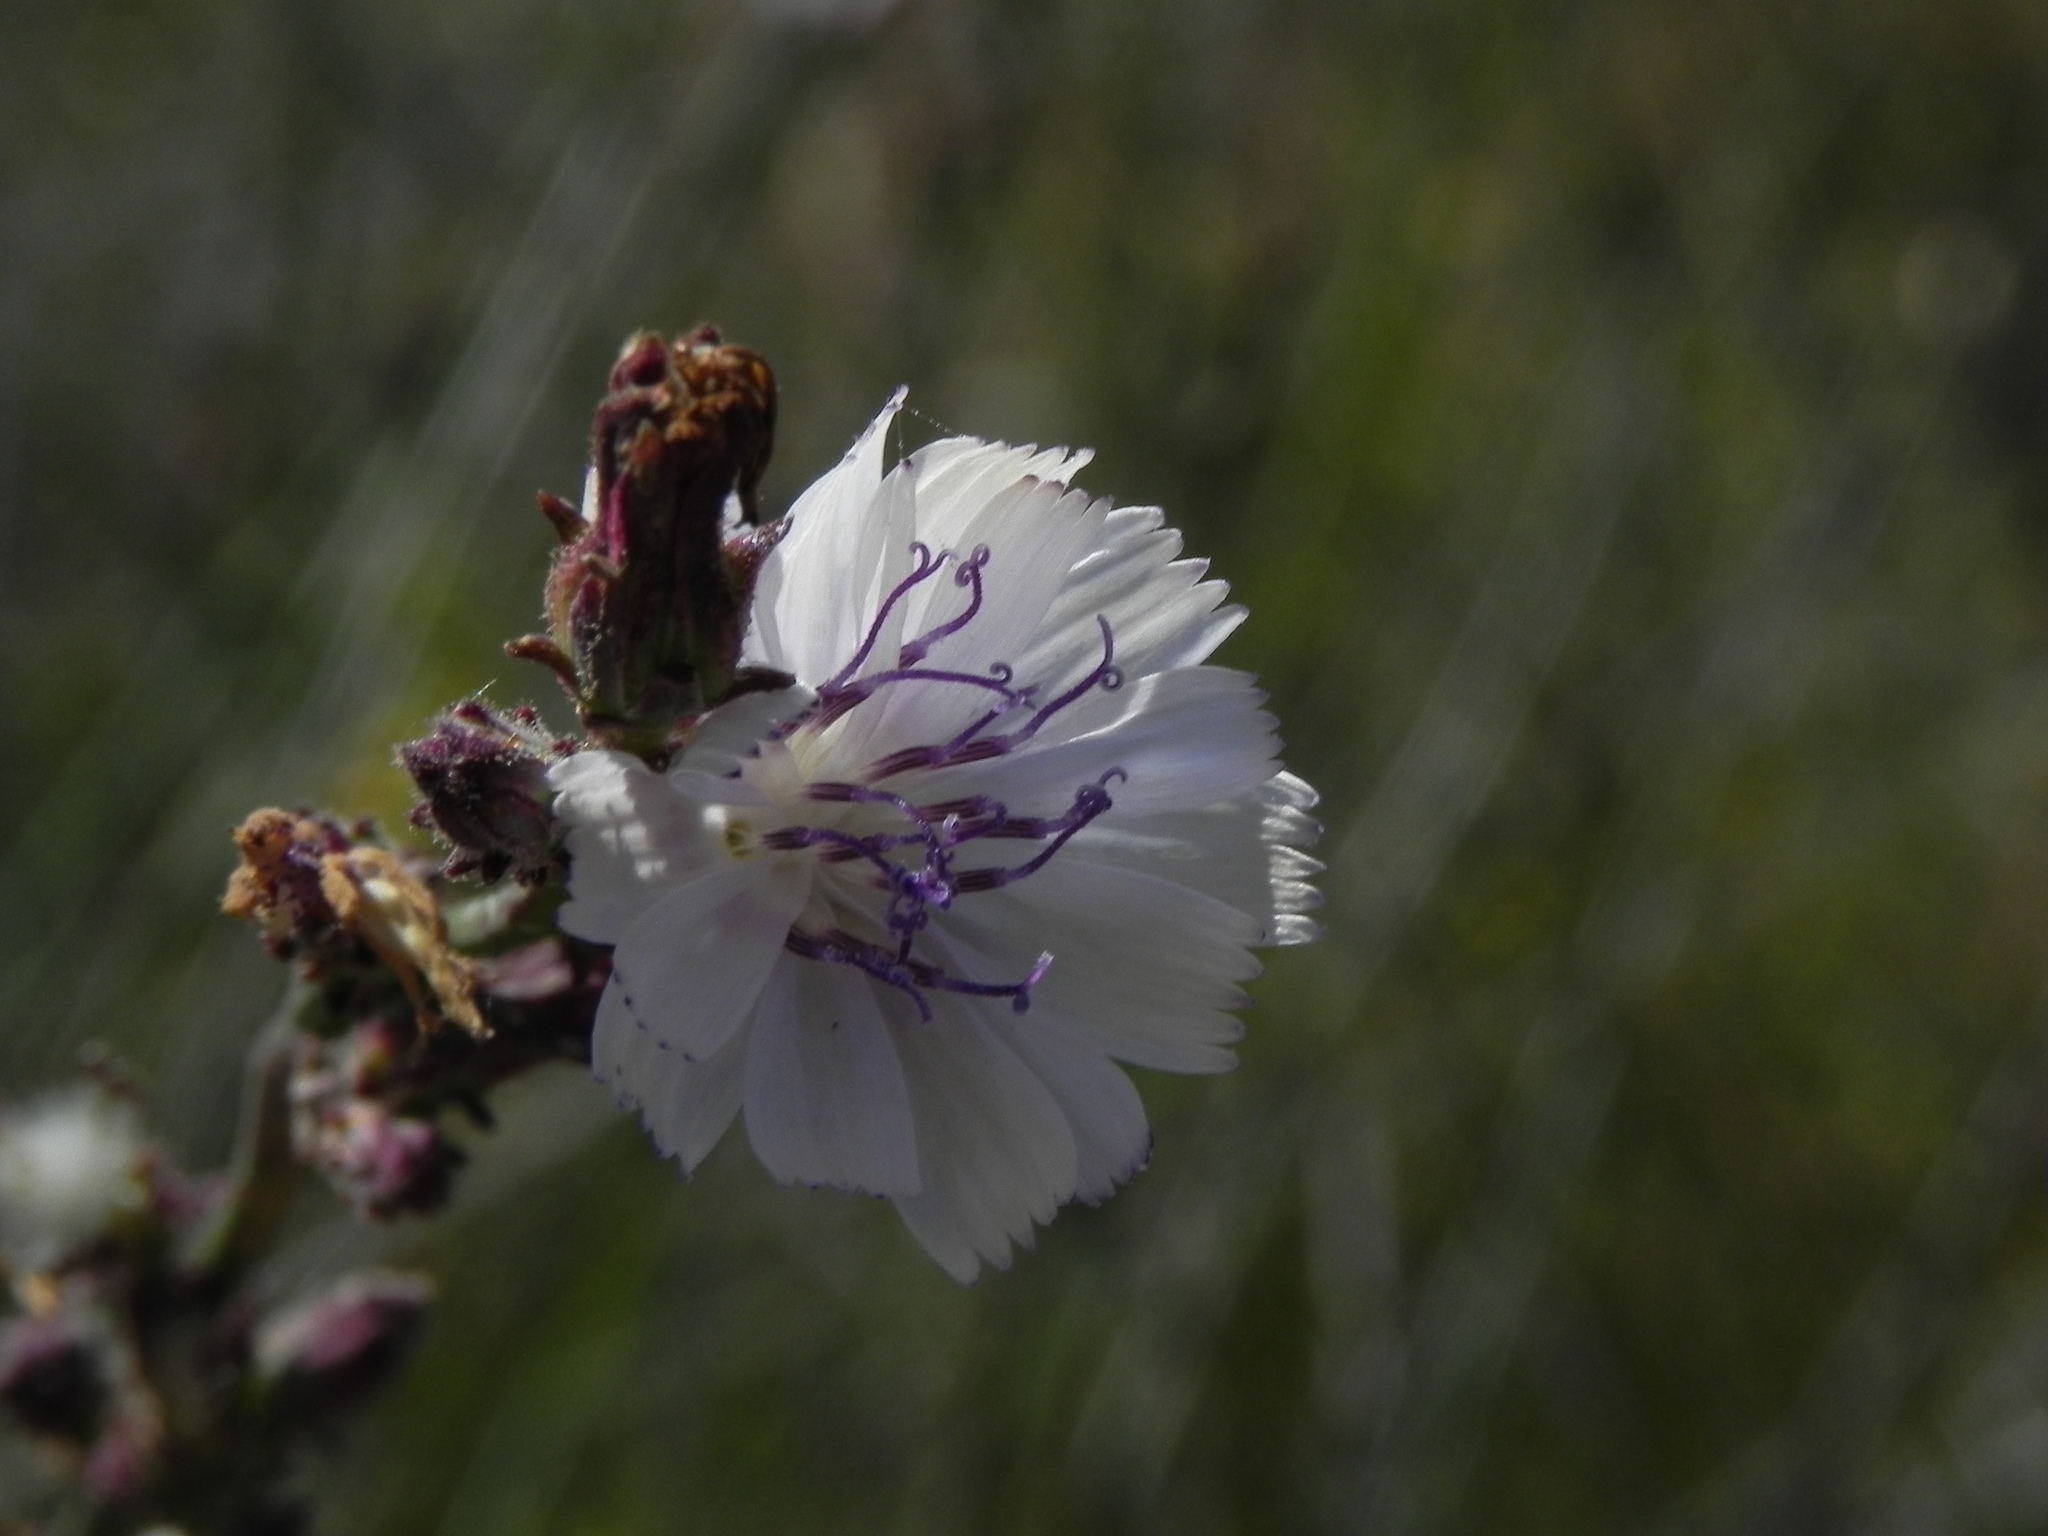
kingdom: Plantae
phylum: Tracheophyta
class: Magnoliopsida
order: Asterales
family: Asteraceae
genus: Stephanomeria
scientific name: Stephanomeria diegensis
